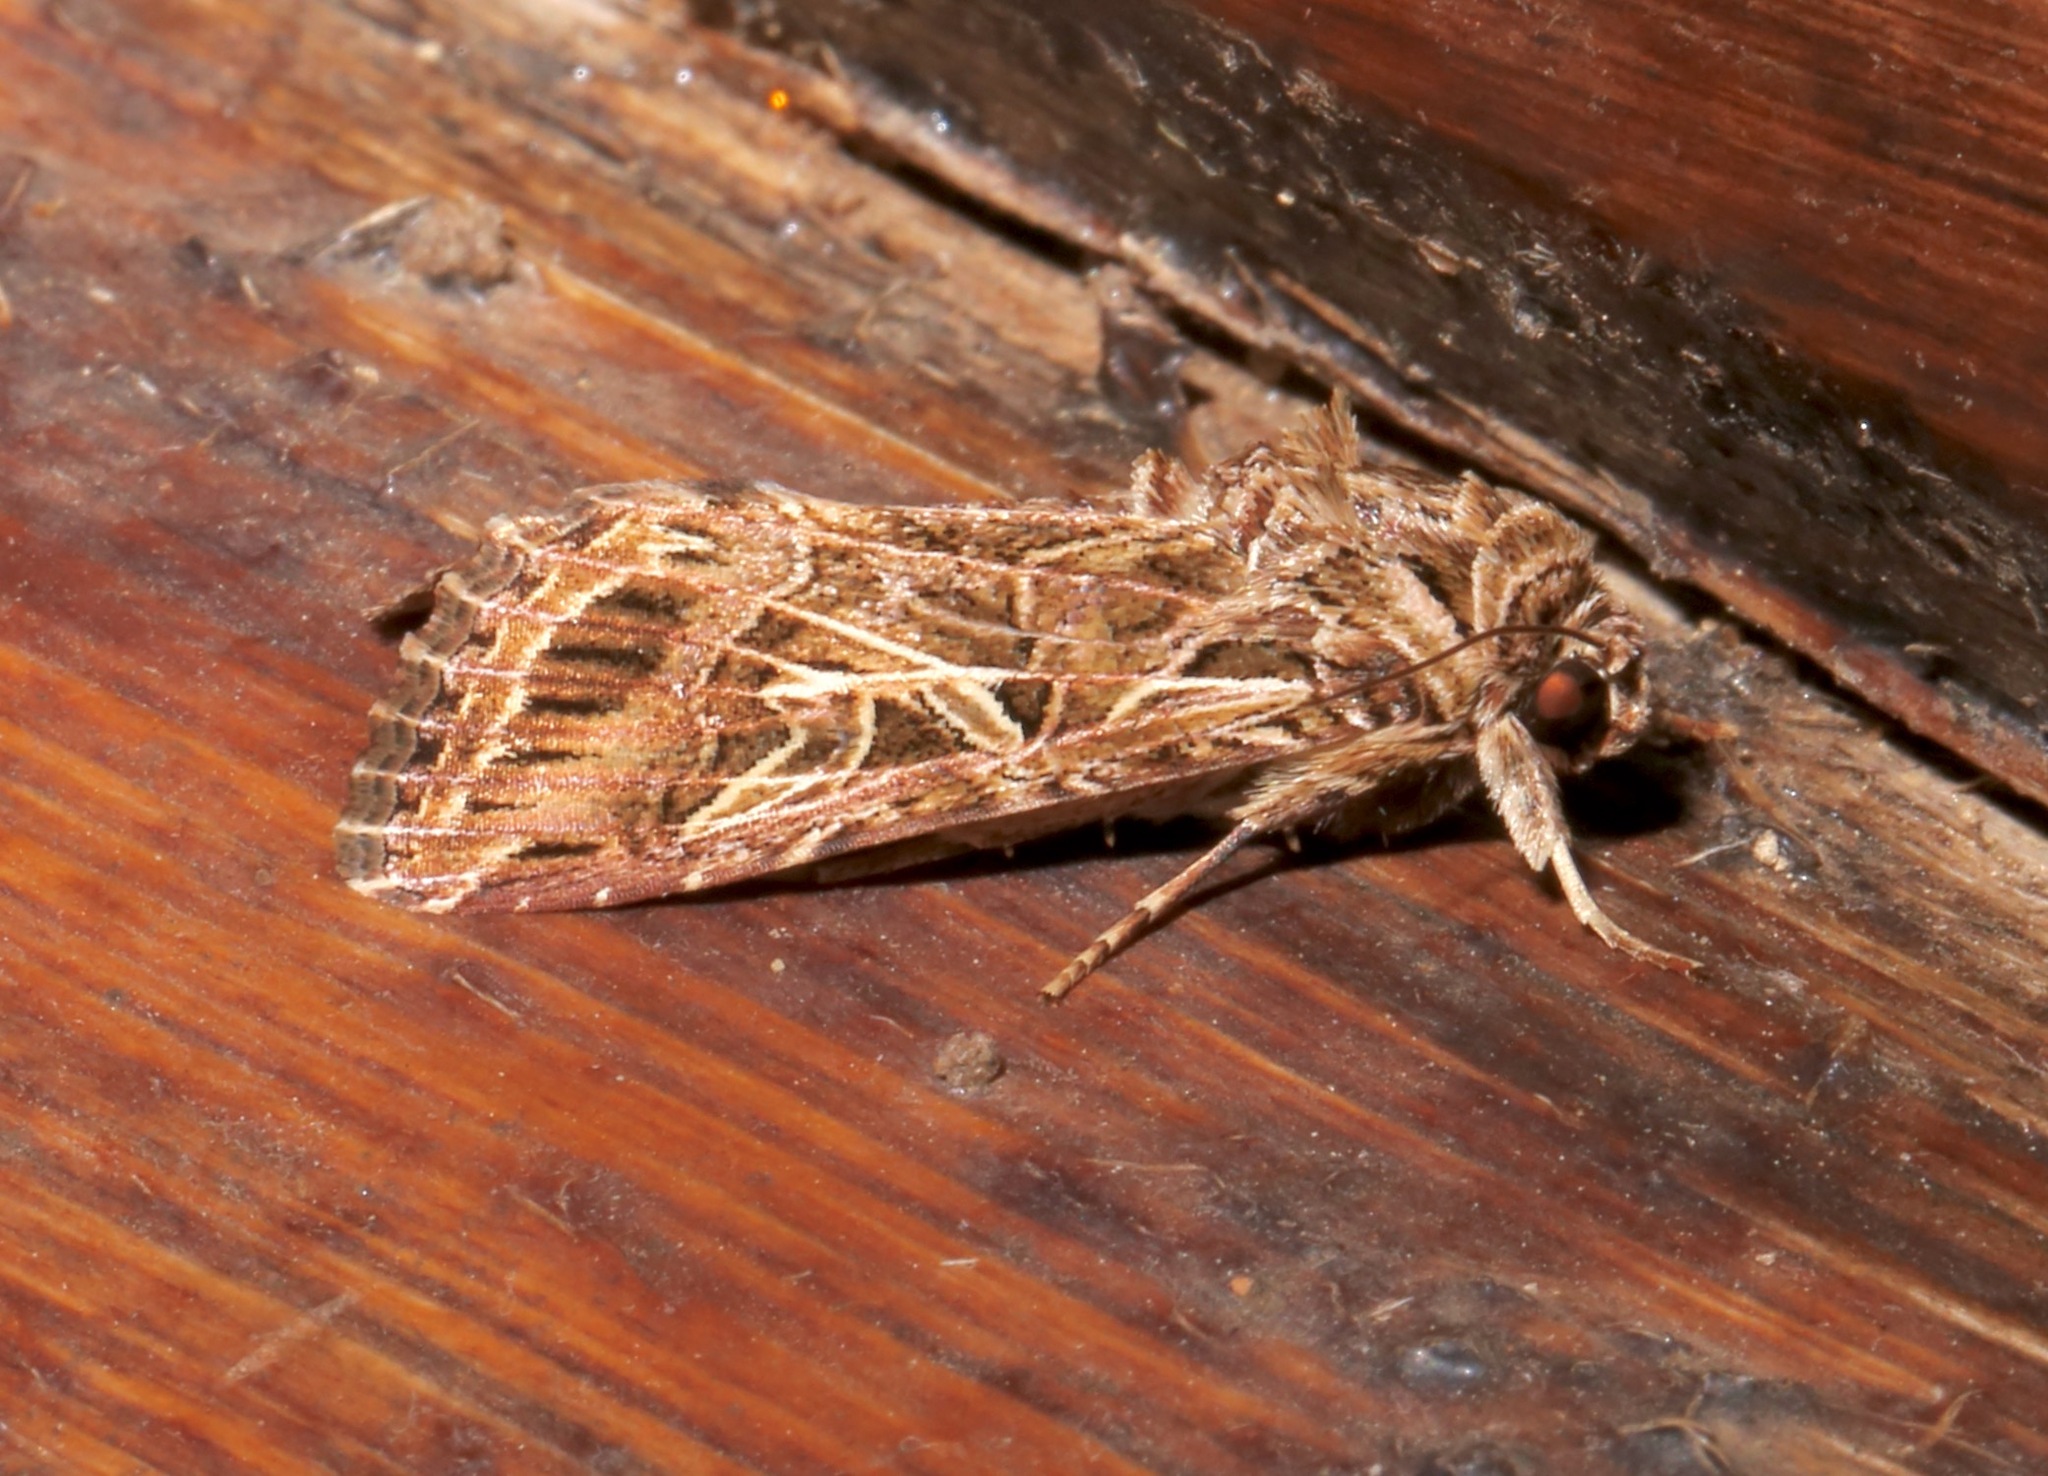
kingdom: Animalia
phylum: Arthropoda
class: Insecta
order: Lepidoptera
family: Noctuidae
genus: Spodoptera
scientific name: Spodoptera littoralis
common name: Egyptian cotton leafworm
